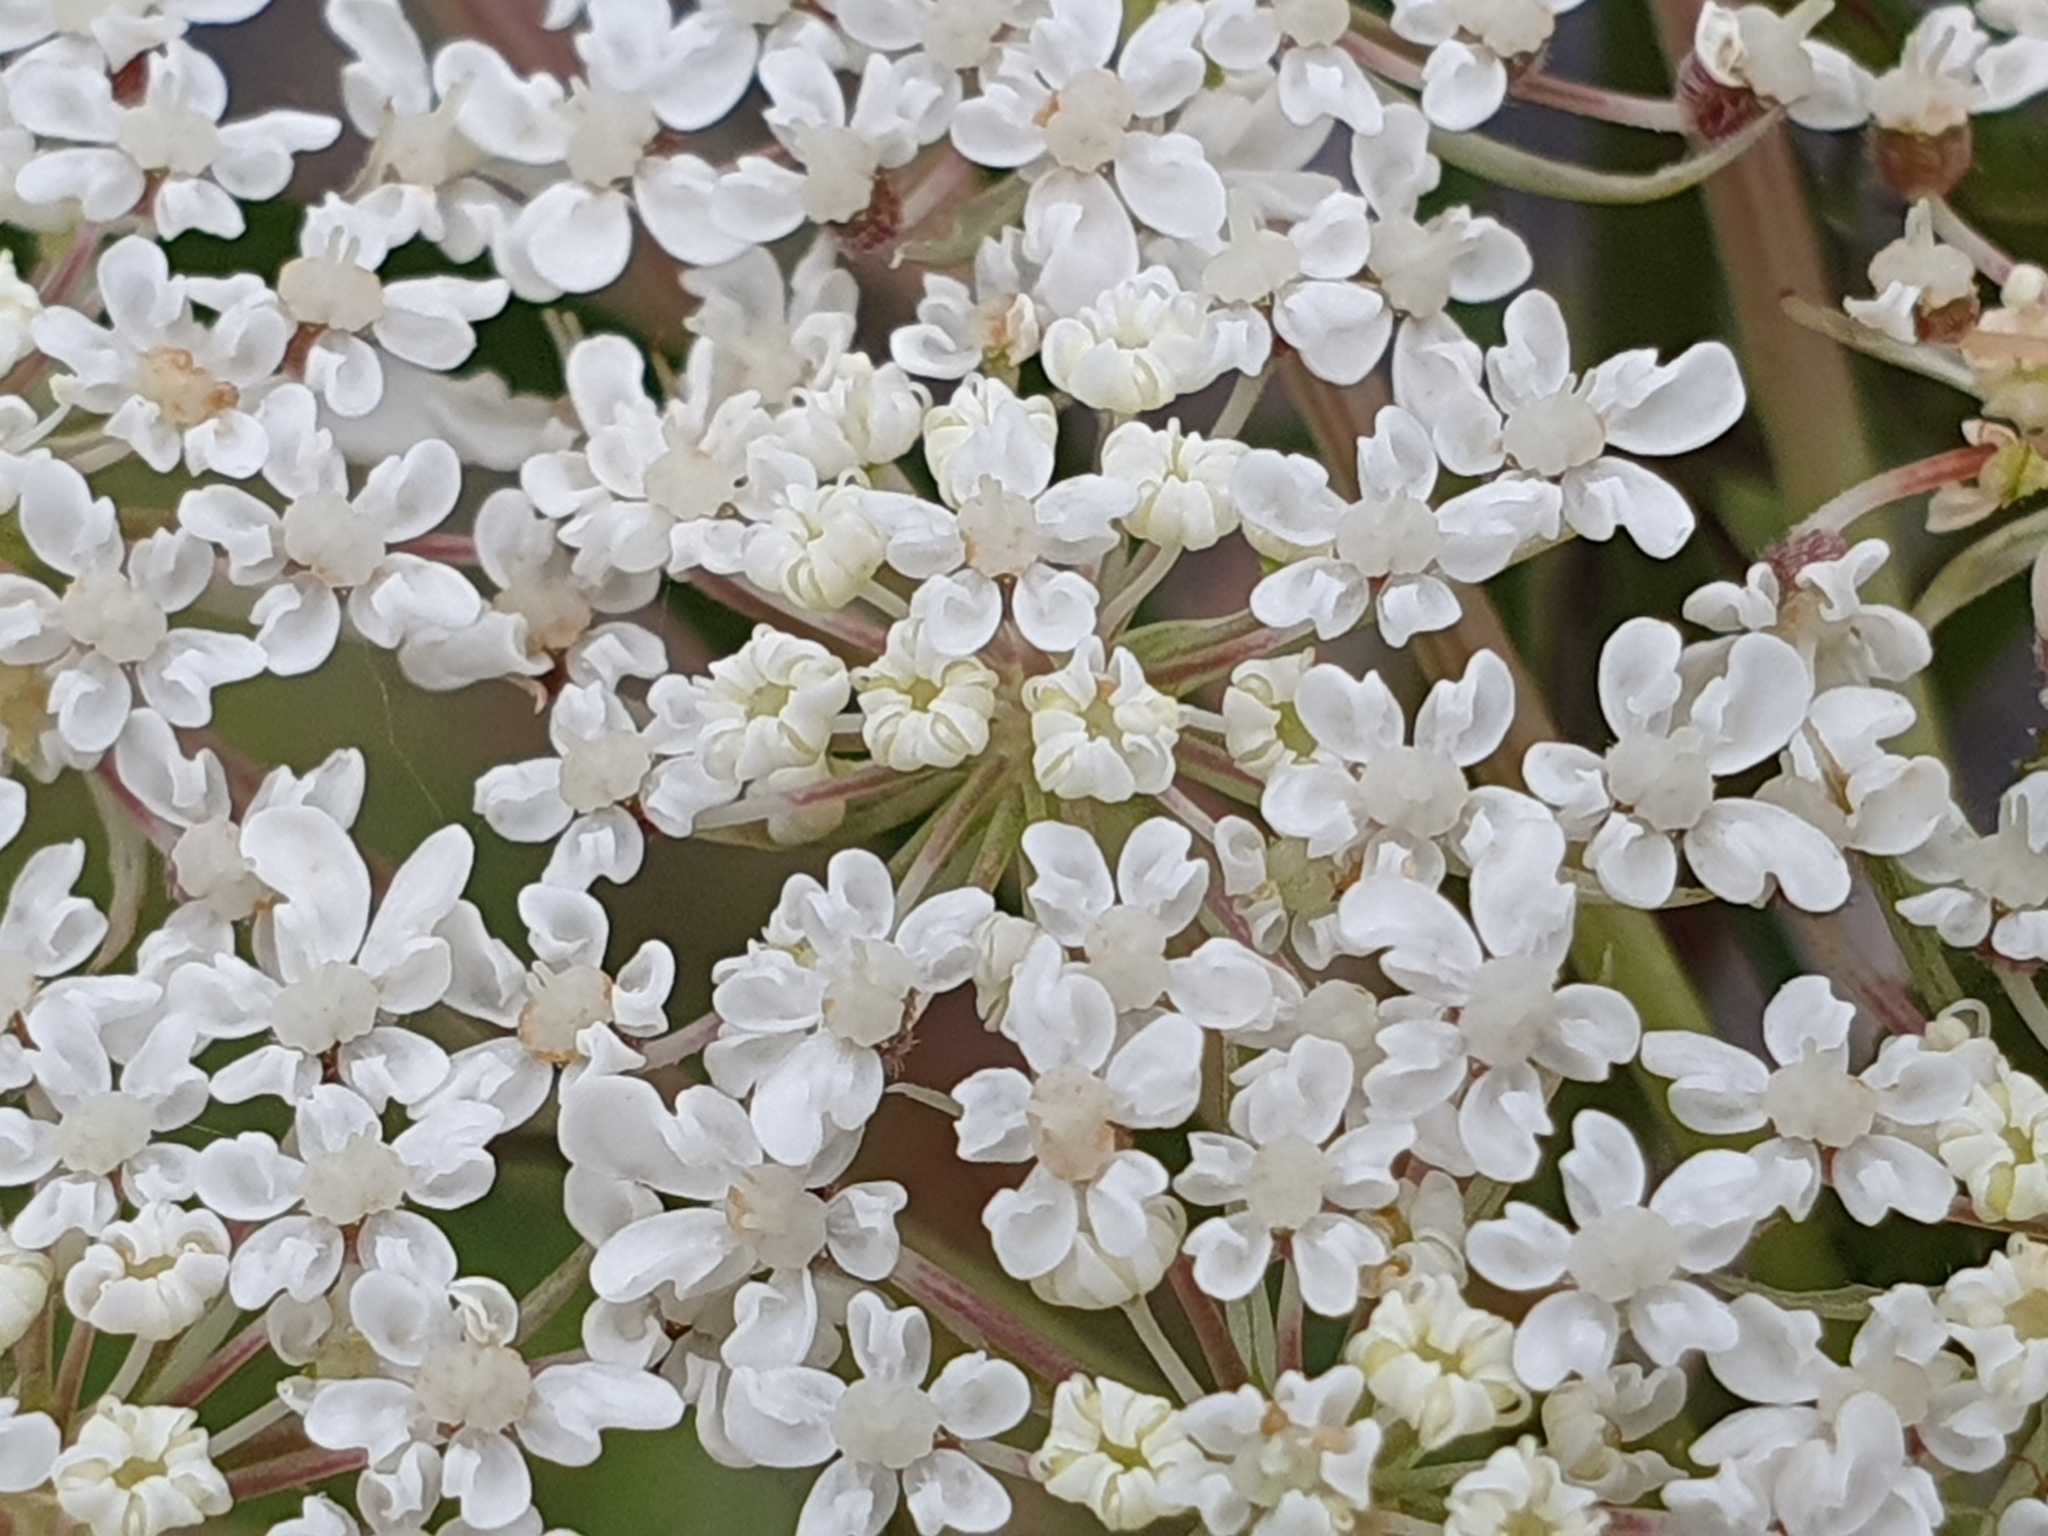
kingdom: Plantae
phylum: Tracheophyta
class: Magnoliopsida
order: Apiales
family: Apiaceae
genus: Daucus
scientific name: Daucus carota
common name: Wild carrot
